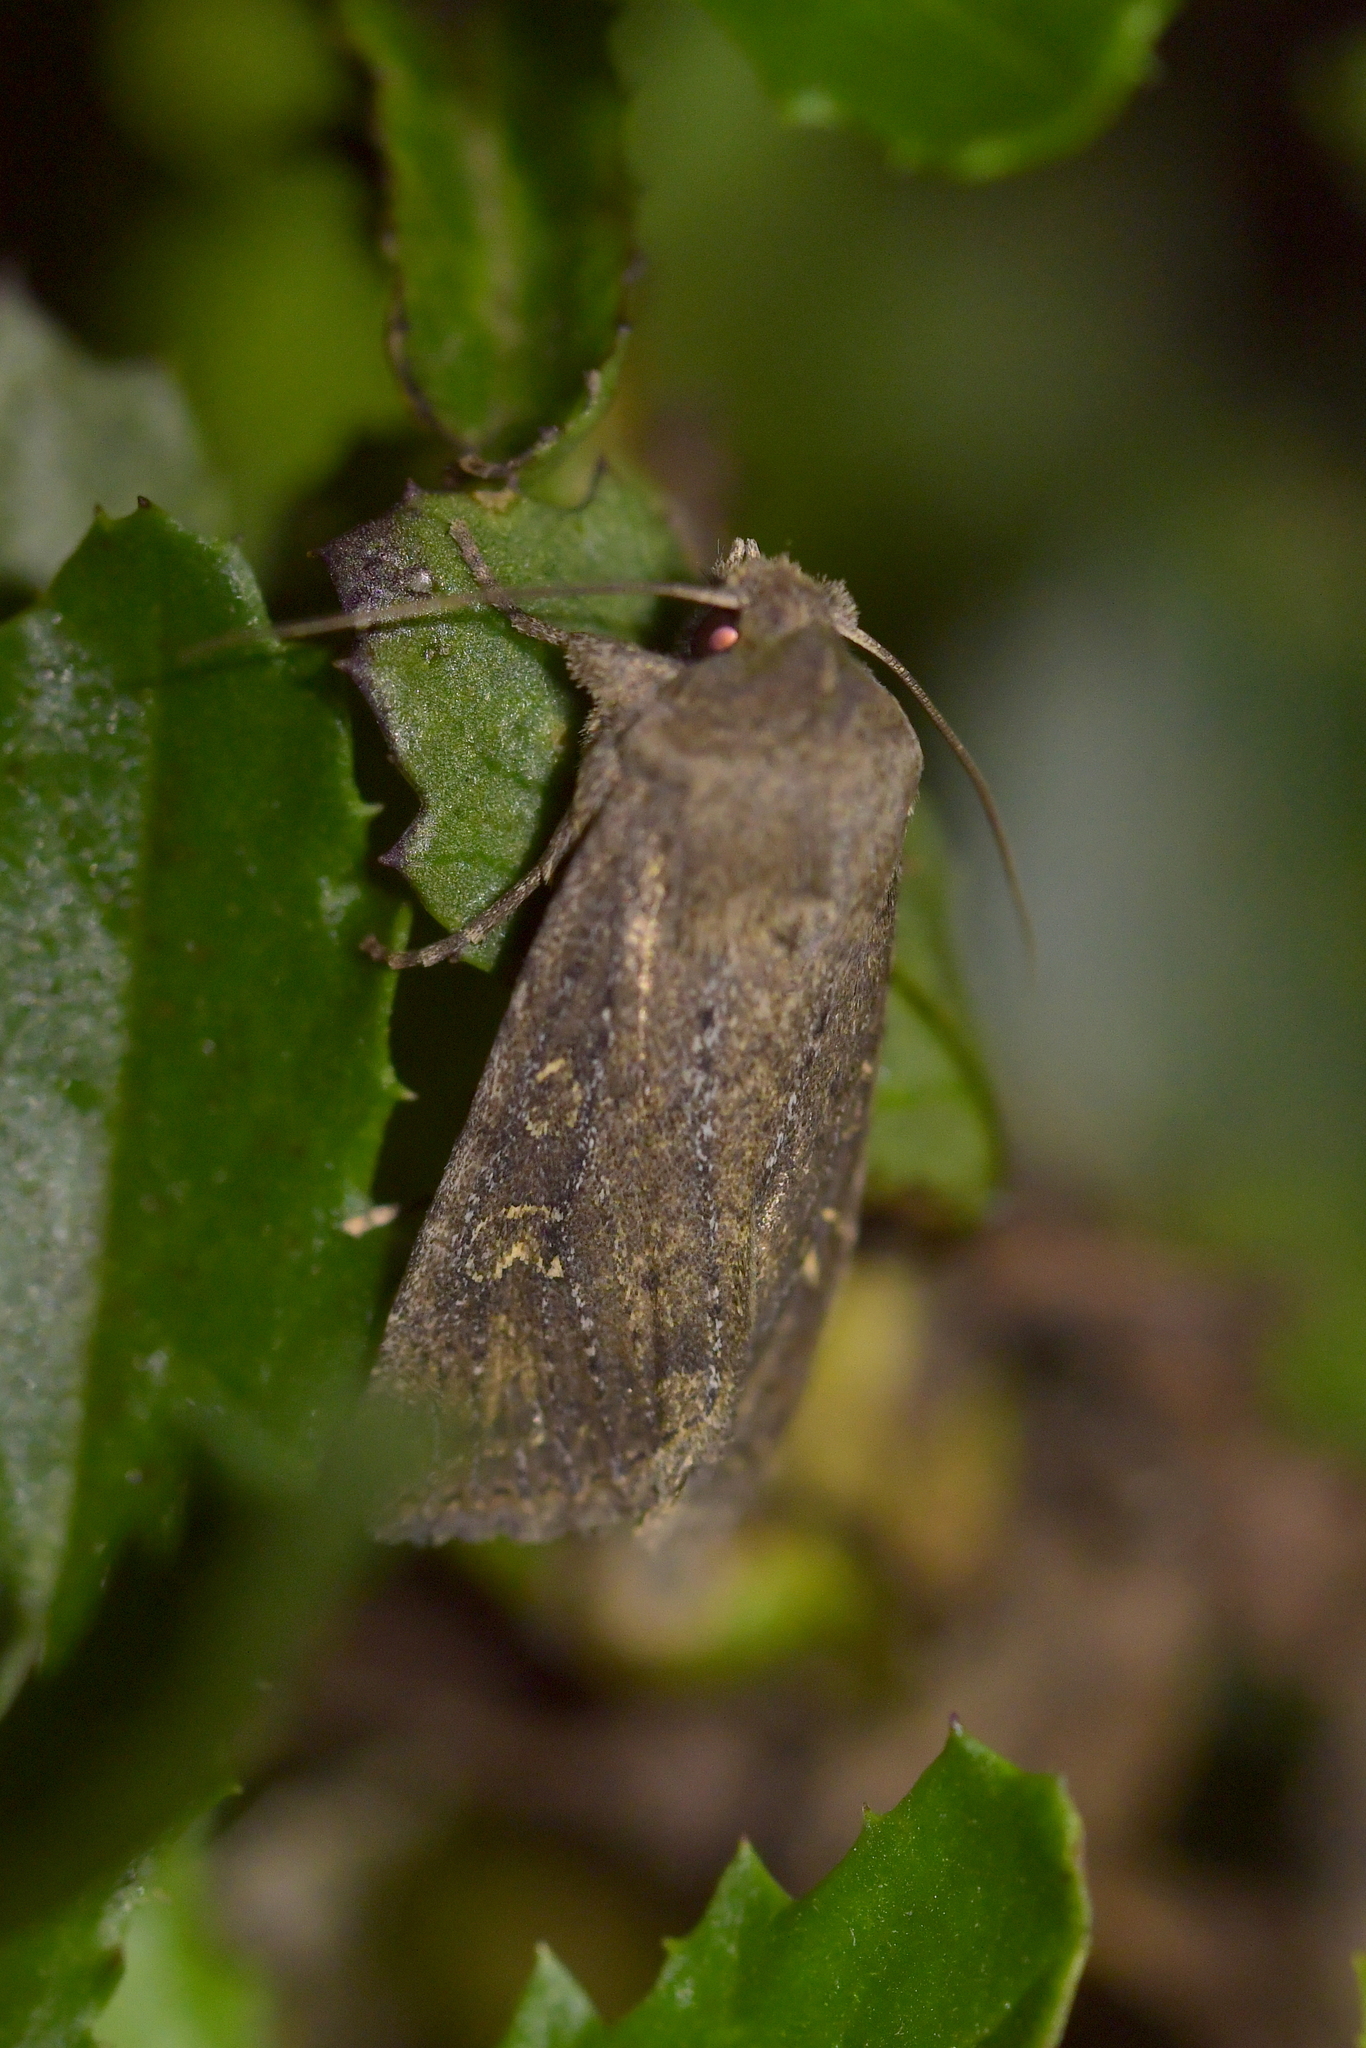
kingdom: Animalia
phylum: Arthropoda
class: Insecta
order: Lepidoptera
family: Noctuidae
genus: Physetica
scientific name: Physetica
